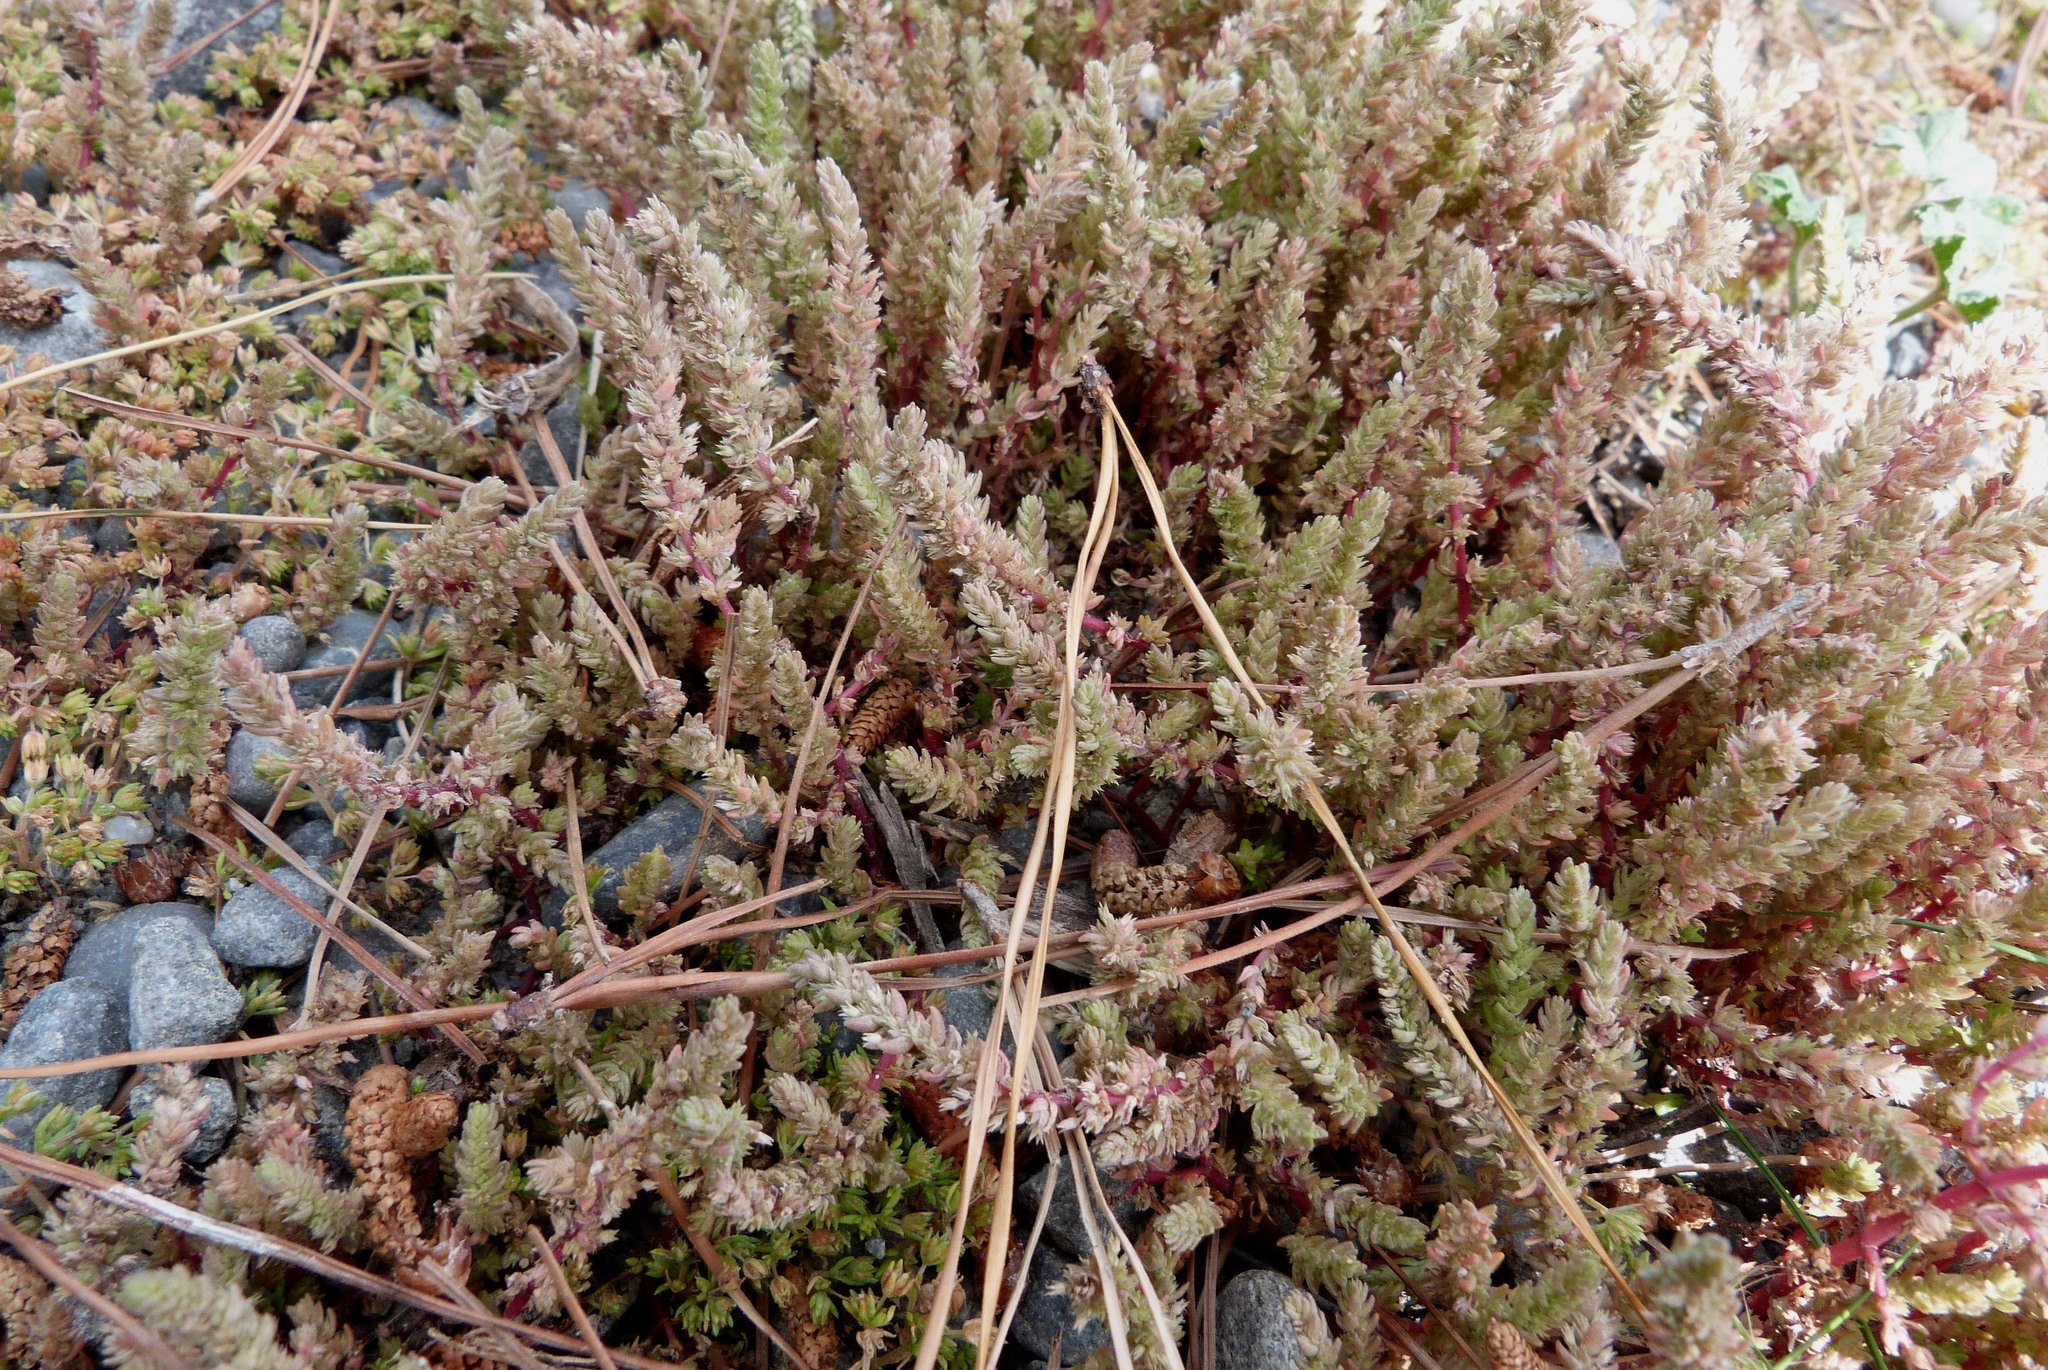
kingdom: Plantae
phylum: Tracheophyta
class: Magnoliopsida
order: Saxifragales
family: Crassulaceae
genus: Crassula
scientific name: Crassula sieberiana
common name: Siberian pygmyweed
